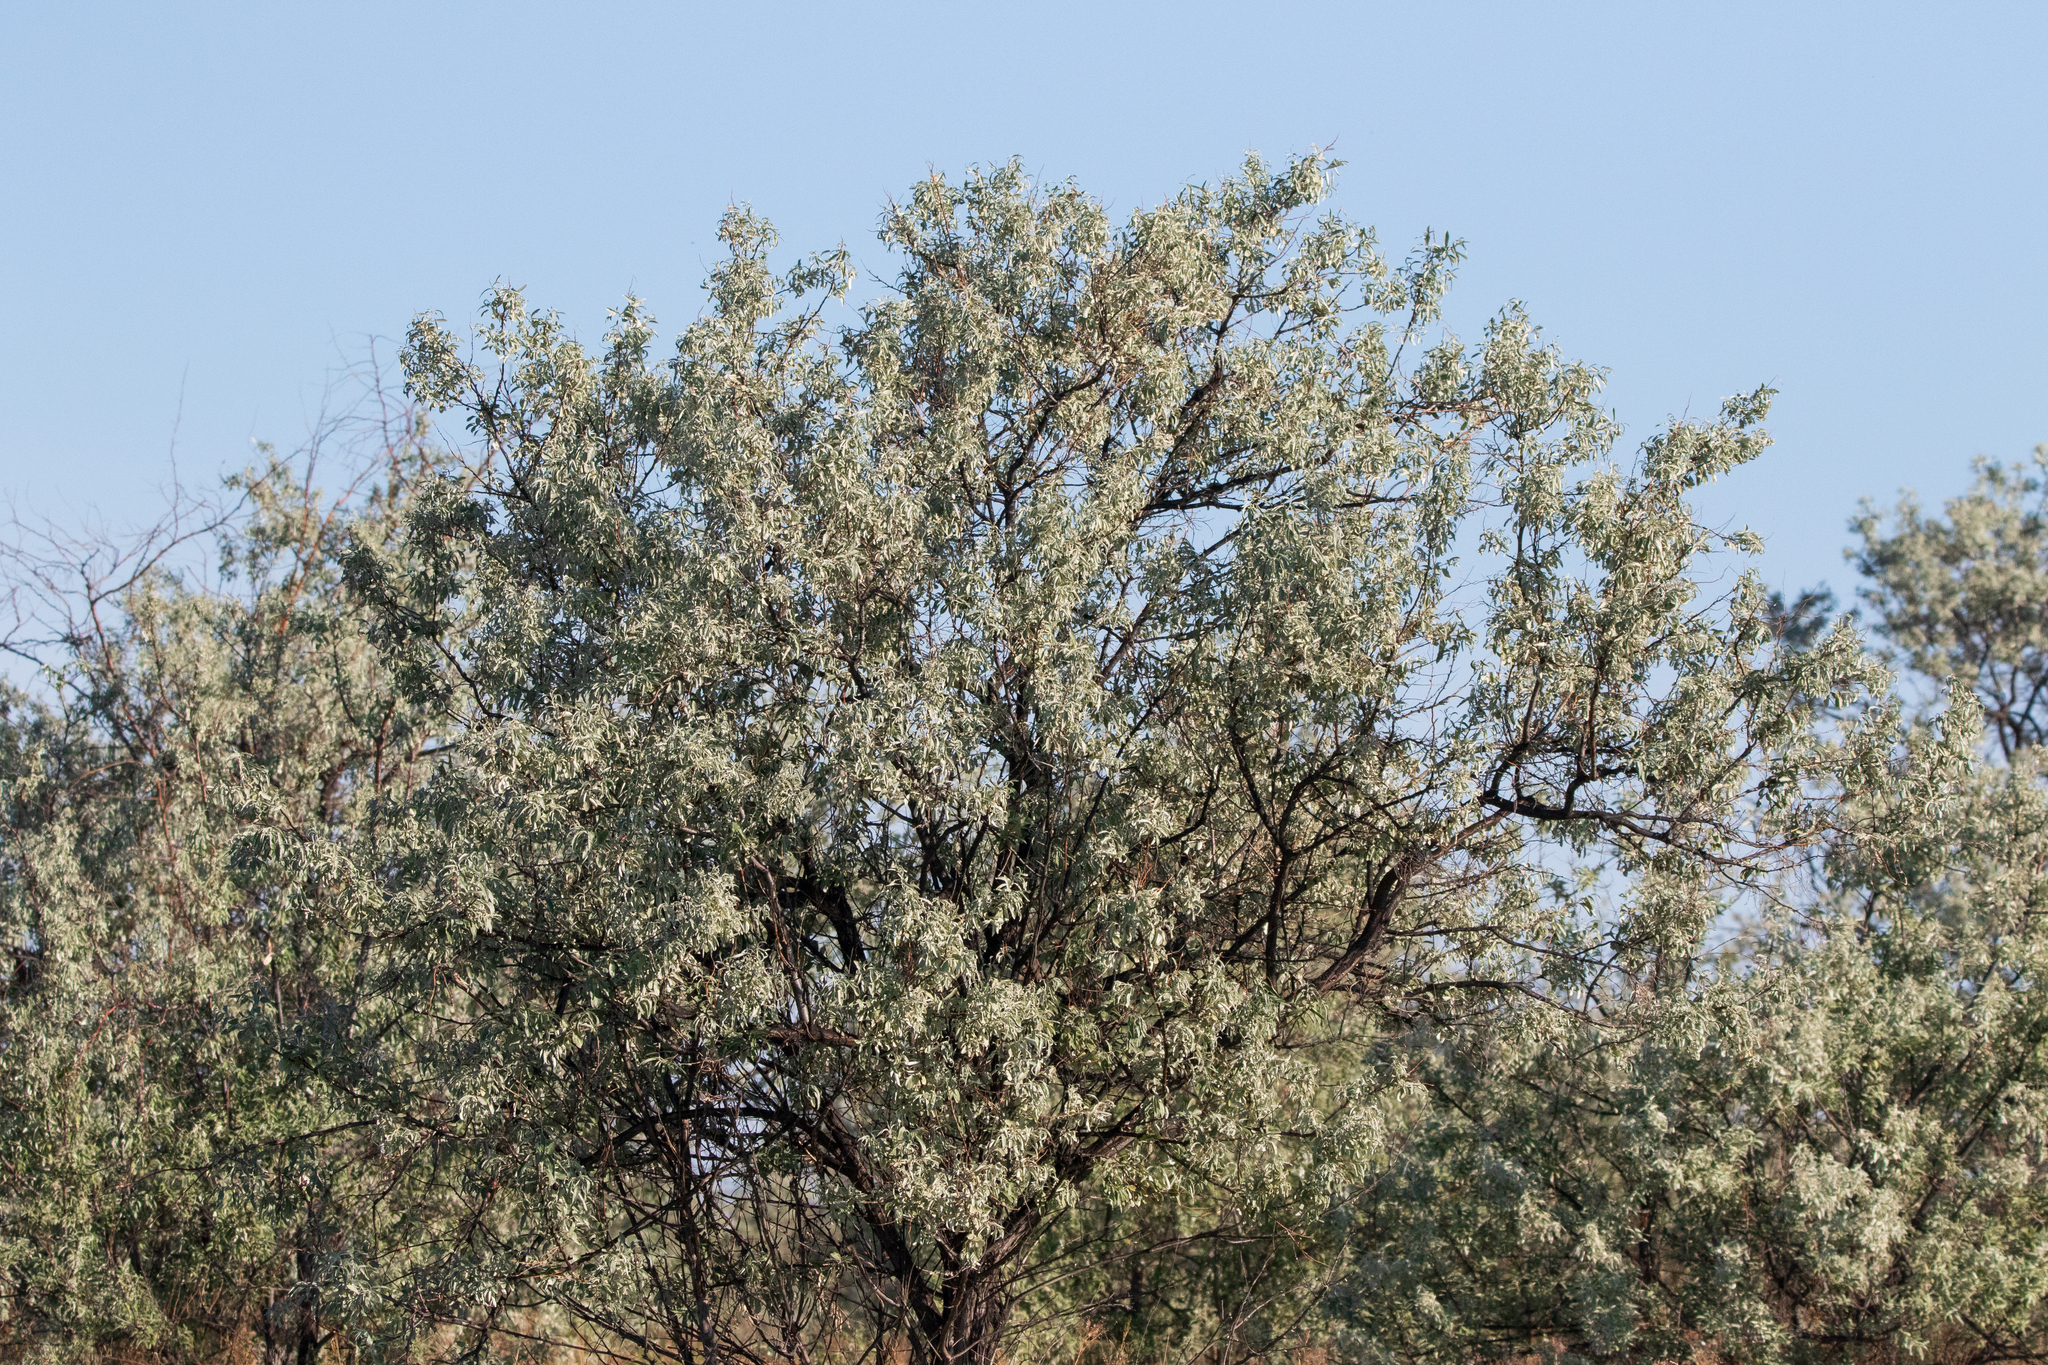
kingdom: Plantae
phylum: Tracheophyta
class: Magnoliopsida
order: Rosales
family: Elaeagnaceae
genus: Elaeagnus
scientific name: Elaeagnus angustifolia
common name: Russian olive
